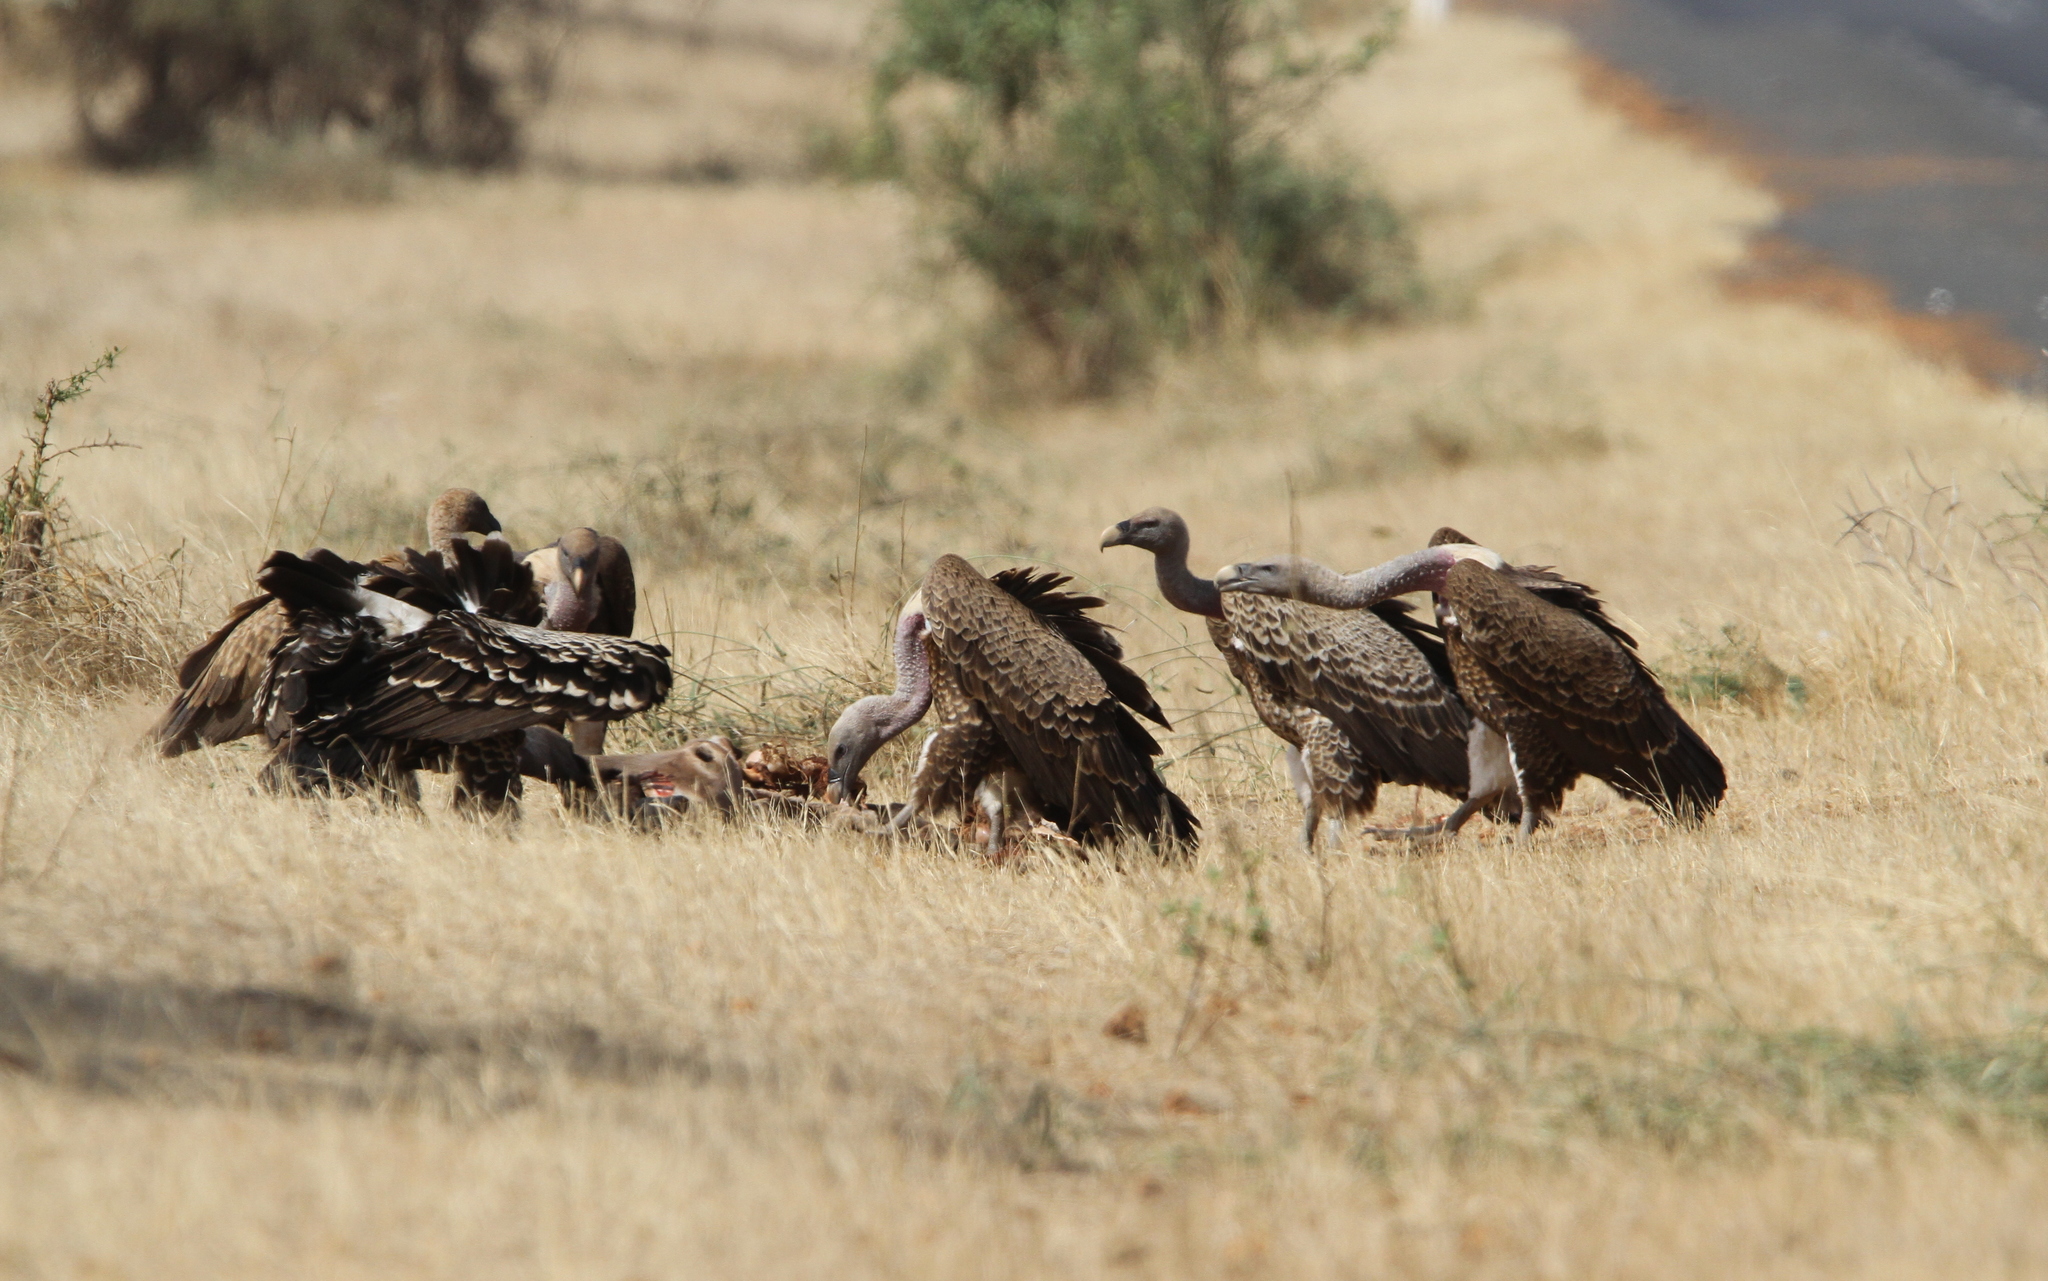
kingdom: Animalia
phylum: Chordata
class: Aves
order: Accipitriformes
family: Accipitridae
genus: Gyps
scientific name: Gyps rueppellii
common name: Rüppell's vulture
